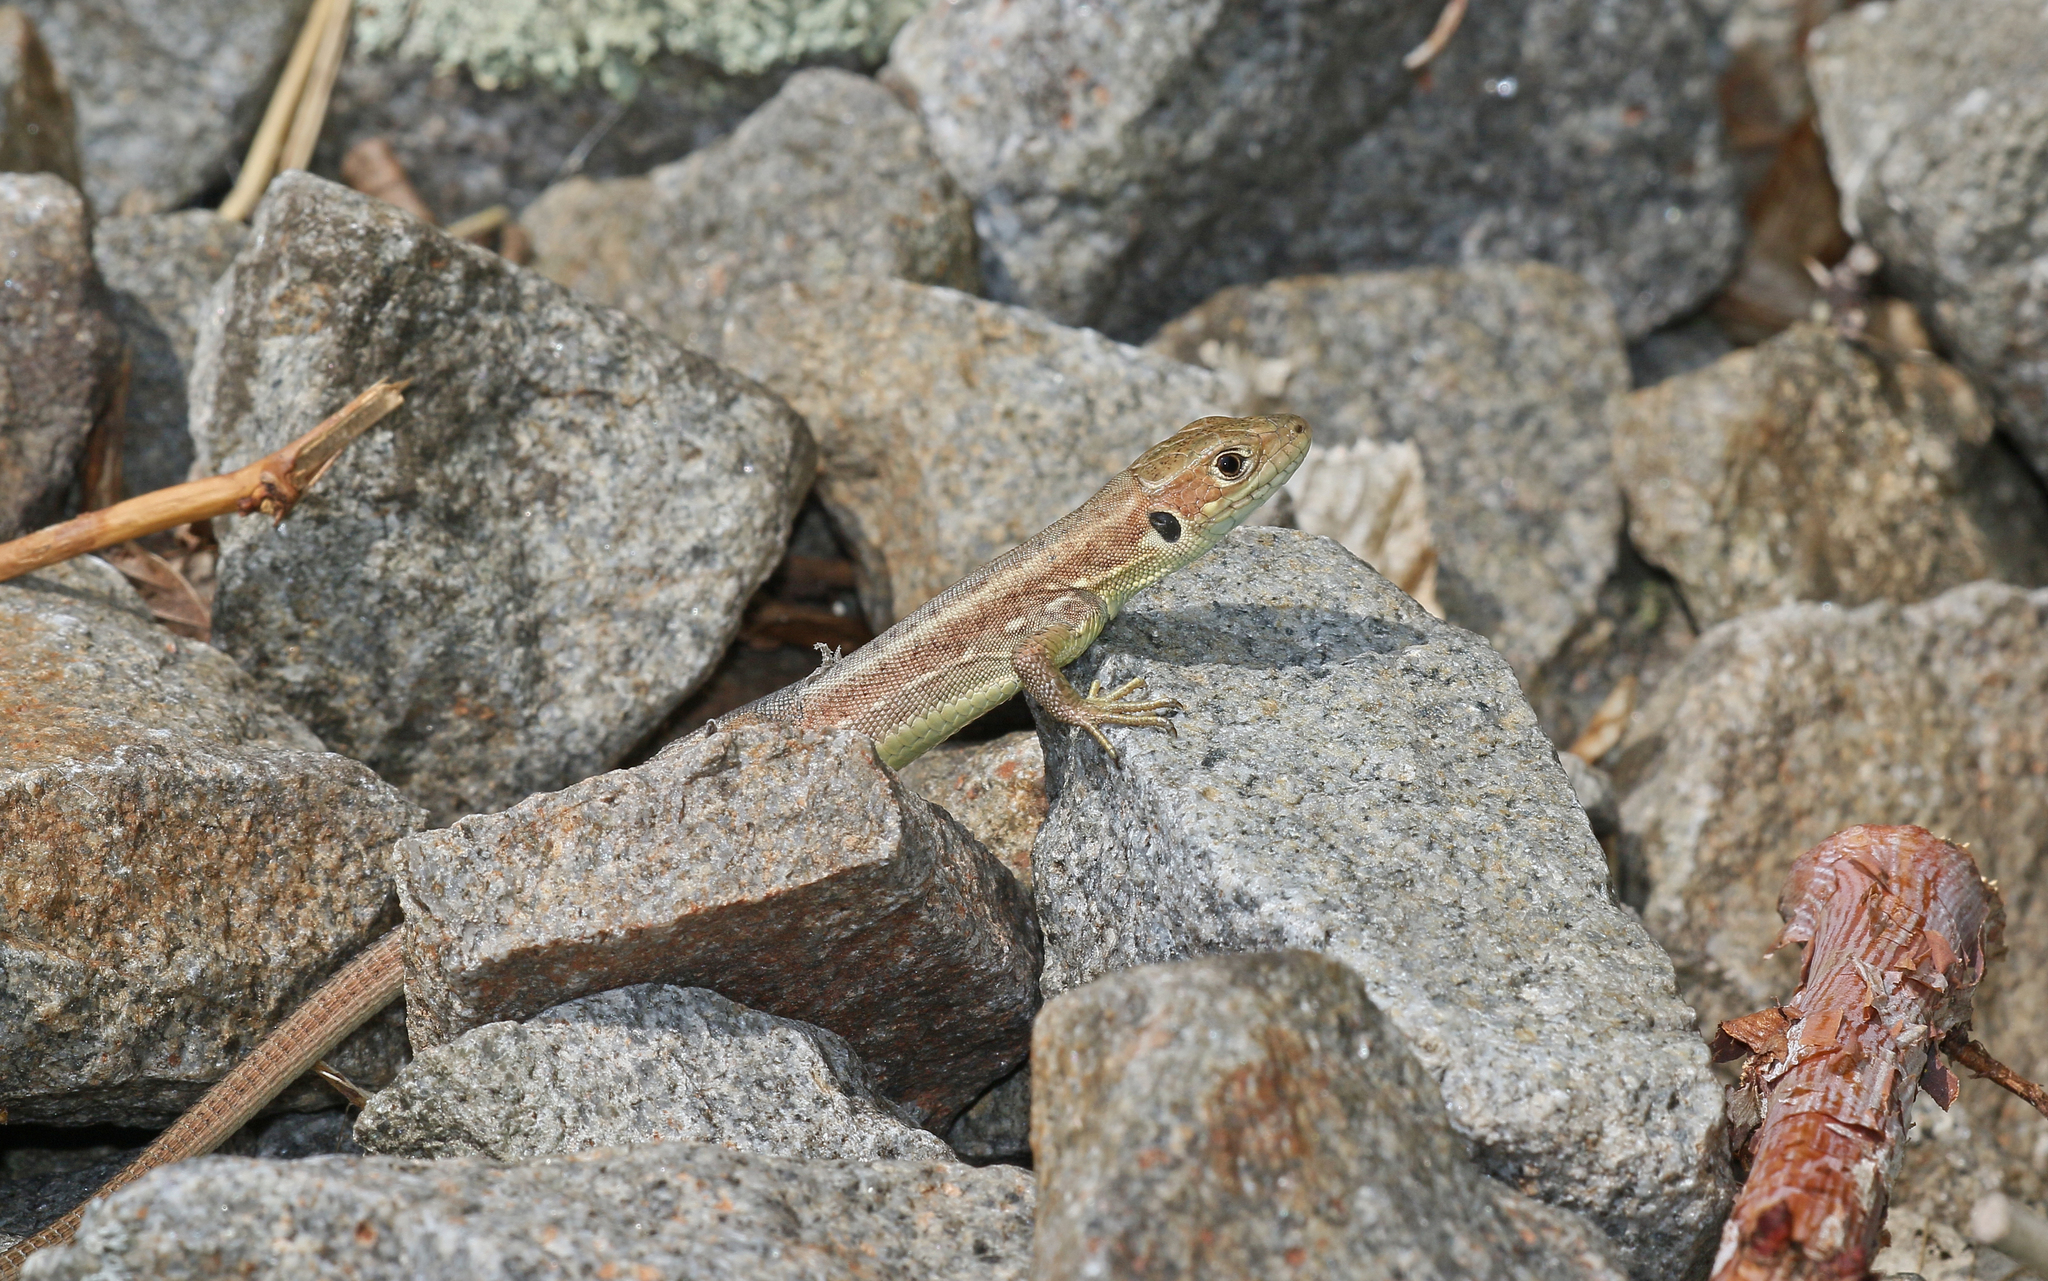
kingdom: Animalia
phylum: Chordata
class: Squamata
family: Lacertidae
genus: Lacerta
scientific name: Lacerta viridis
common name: European green lizard
